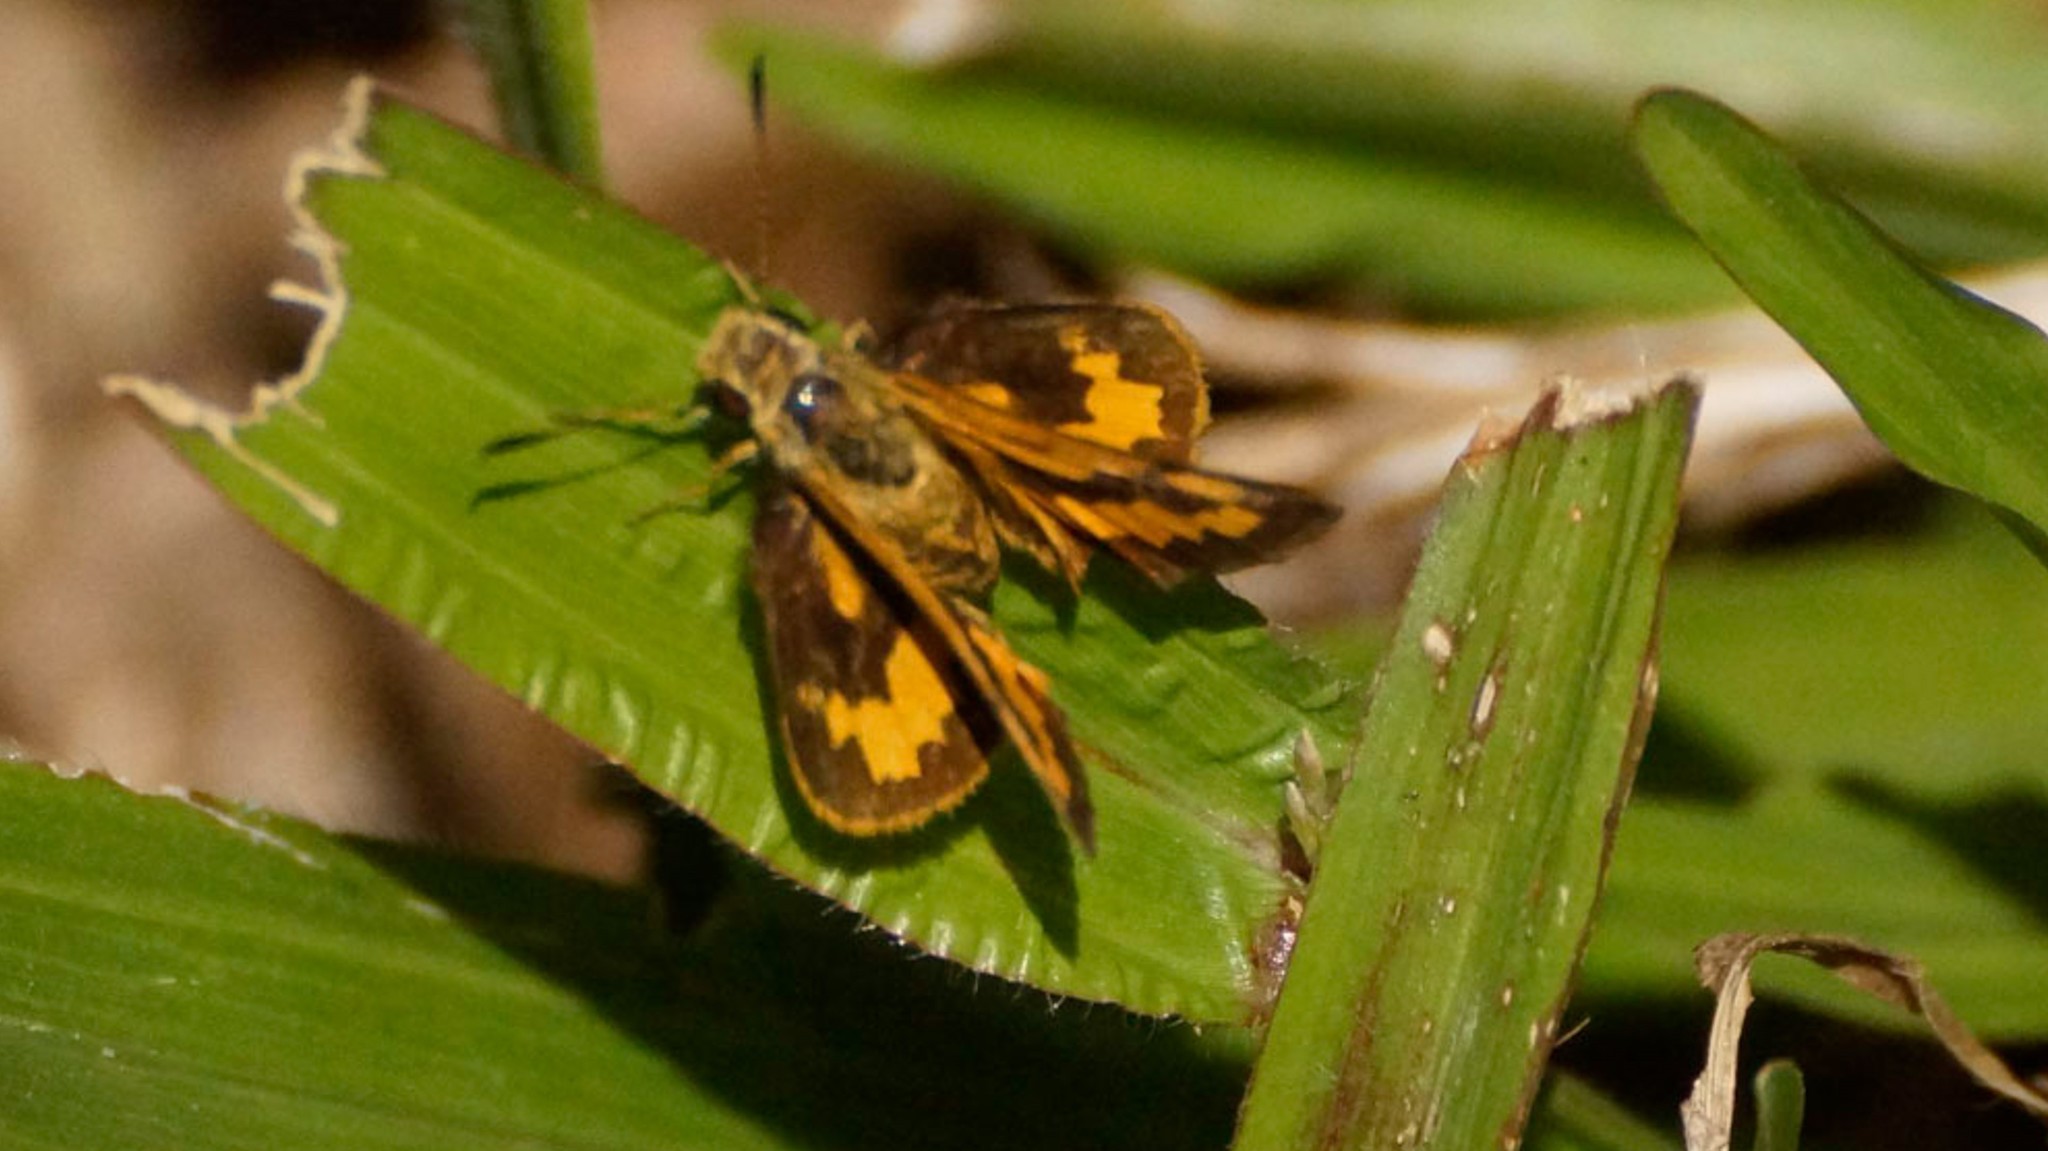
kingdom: Animalia
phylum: Arthropoda
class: Insecta
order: Lepidoptera
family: Hesperiidae
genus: Ocybadistes
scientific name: Ocybadistes walkeri
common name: Yellow-banded dart
